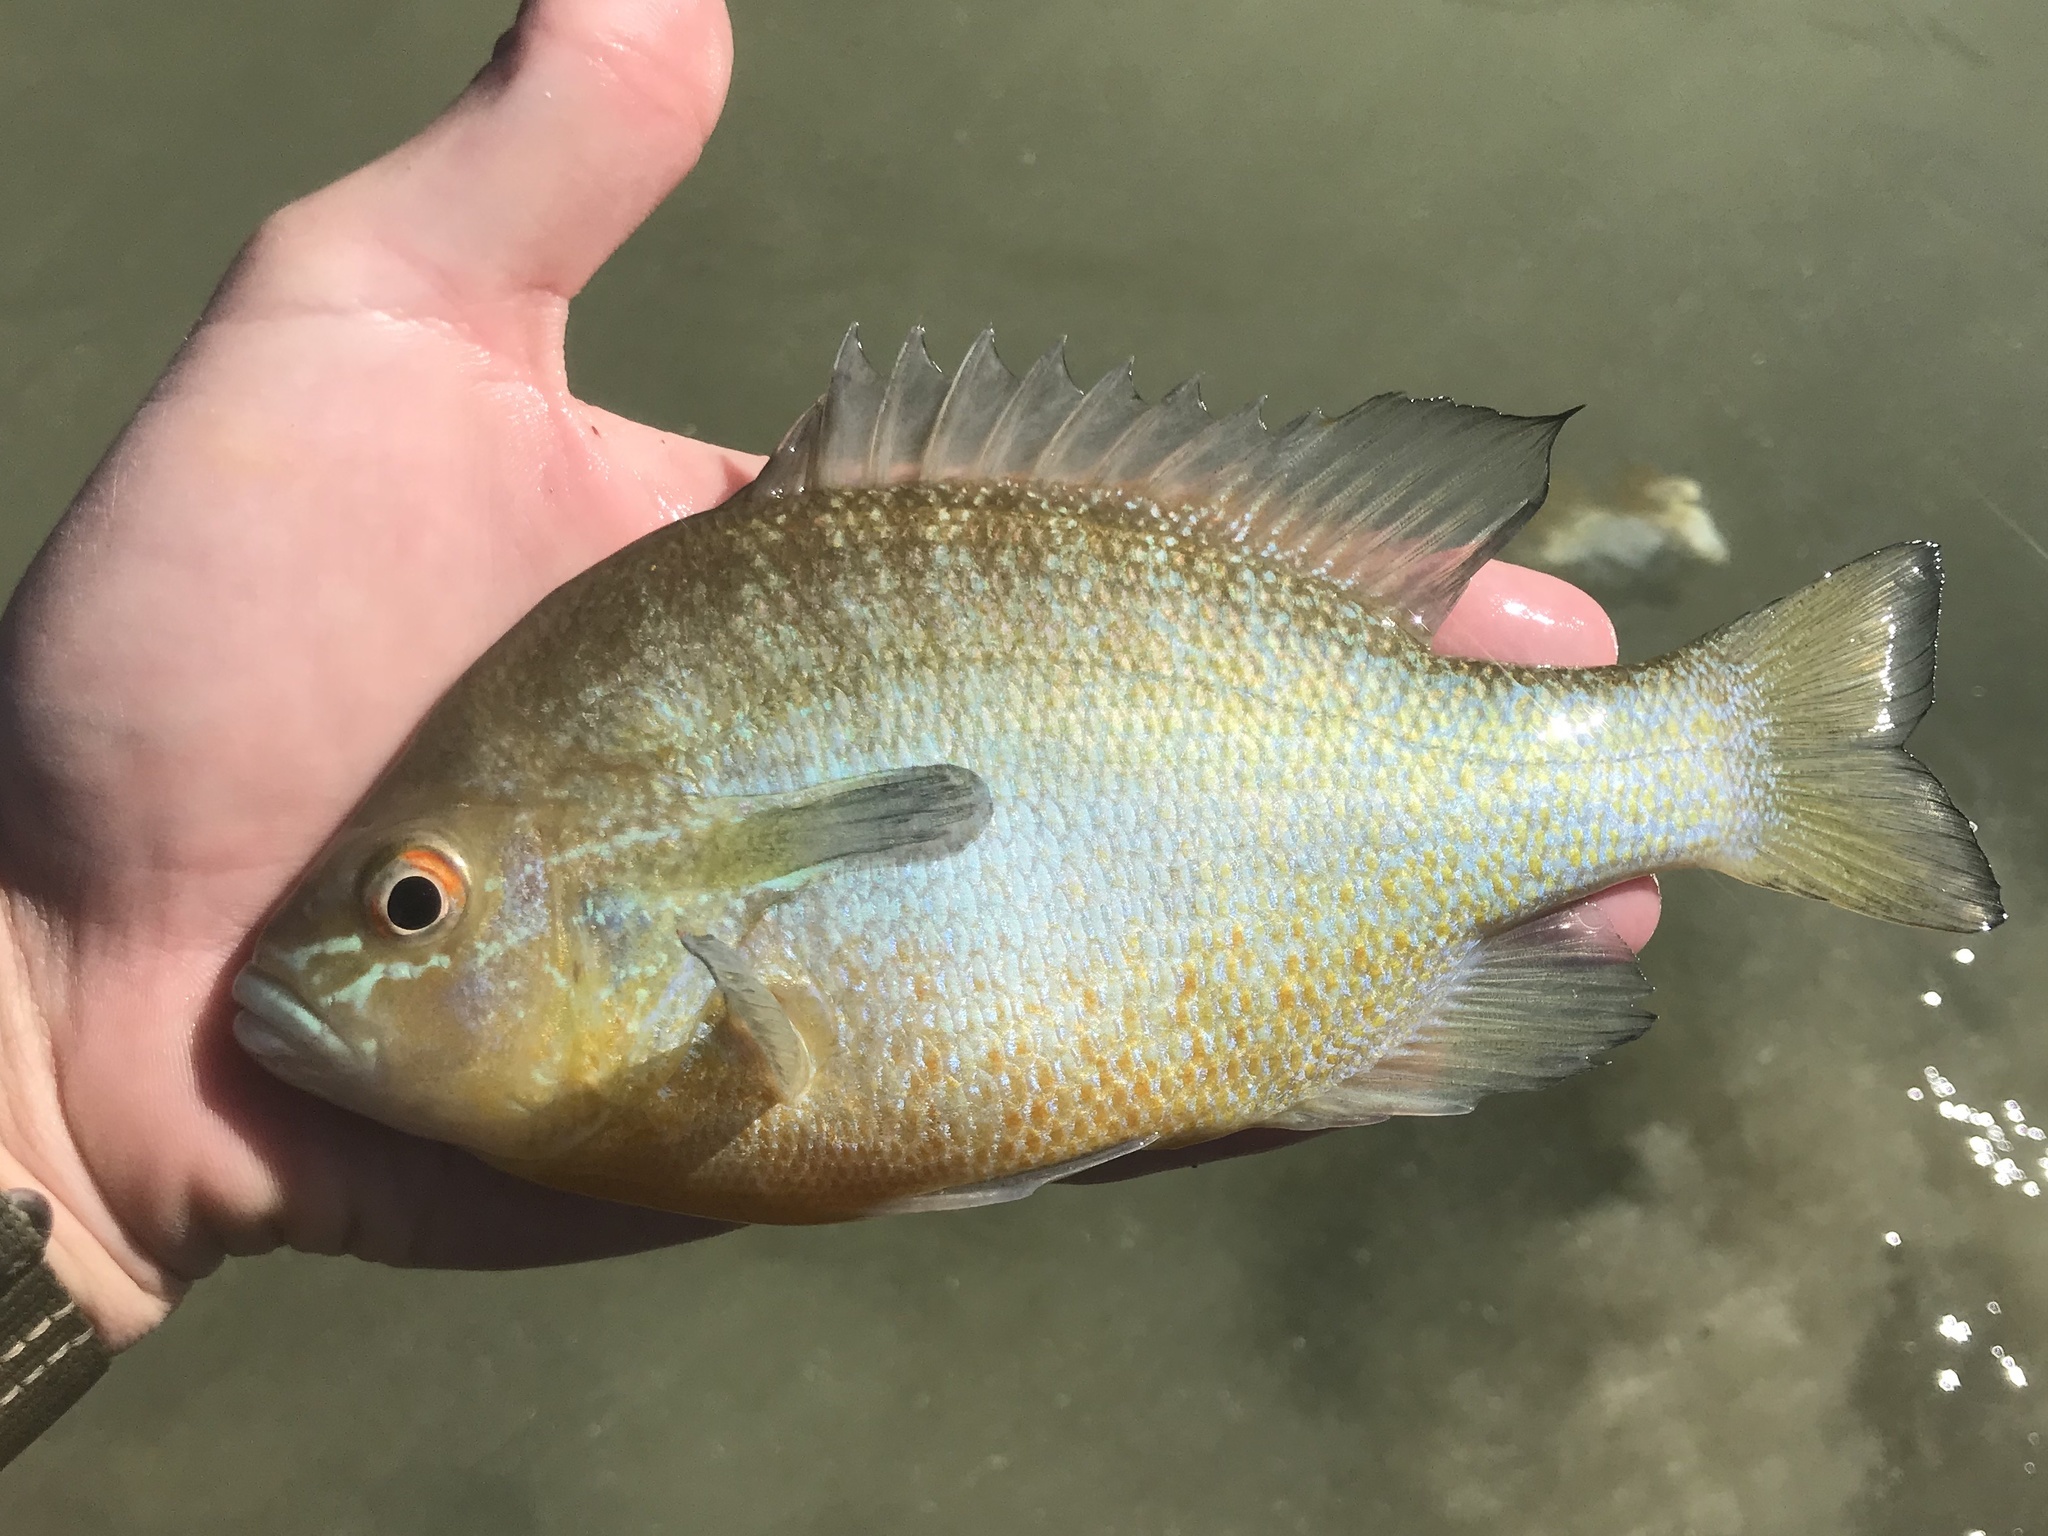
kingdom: Animalia
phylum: Chordata
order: Perciformes
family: Centrarchidae
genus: Lepomis
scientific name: Lepomis auritus
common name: Redbreast sunfish
